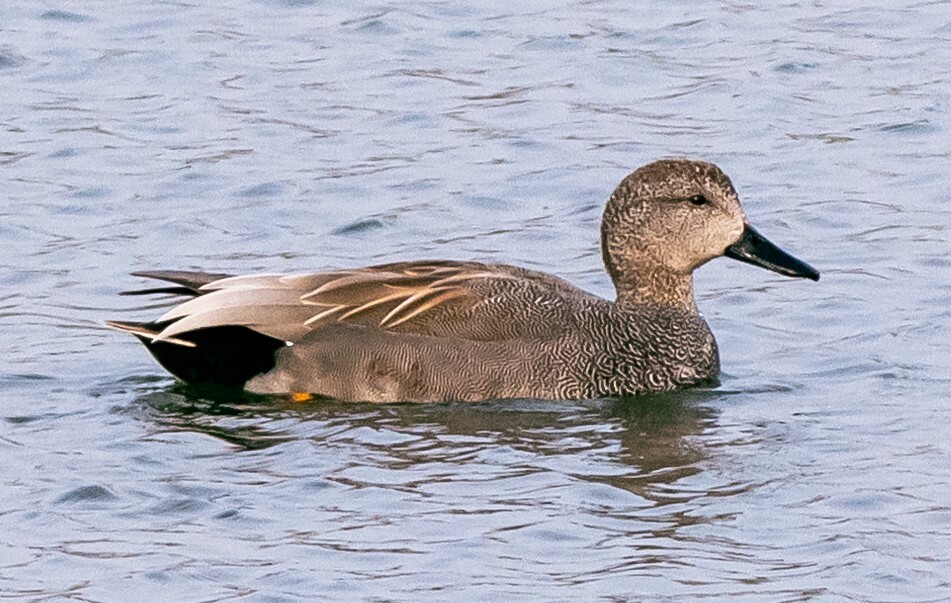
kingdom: Animalia
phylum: Chordata
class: Aves
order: Anseriformes
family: Anatidae
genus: Mareca
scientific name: Mareca strepera
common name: Gadwall
